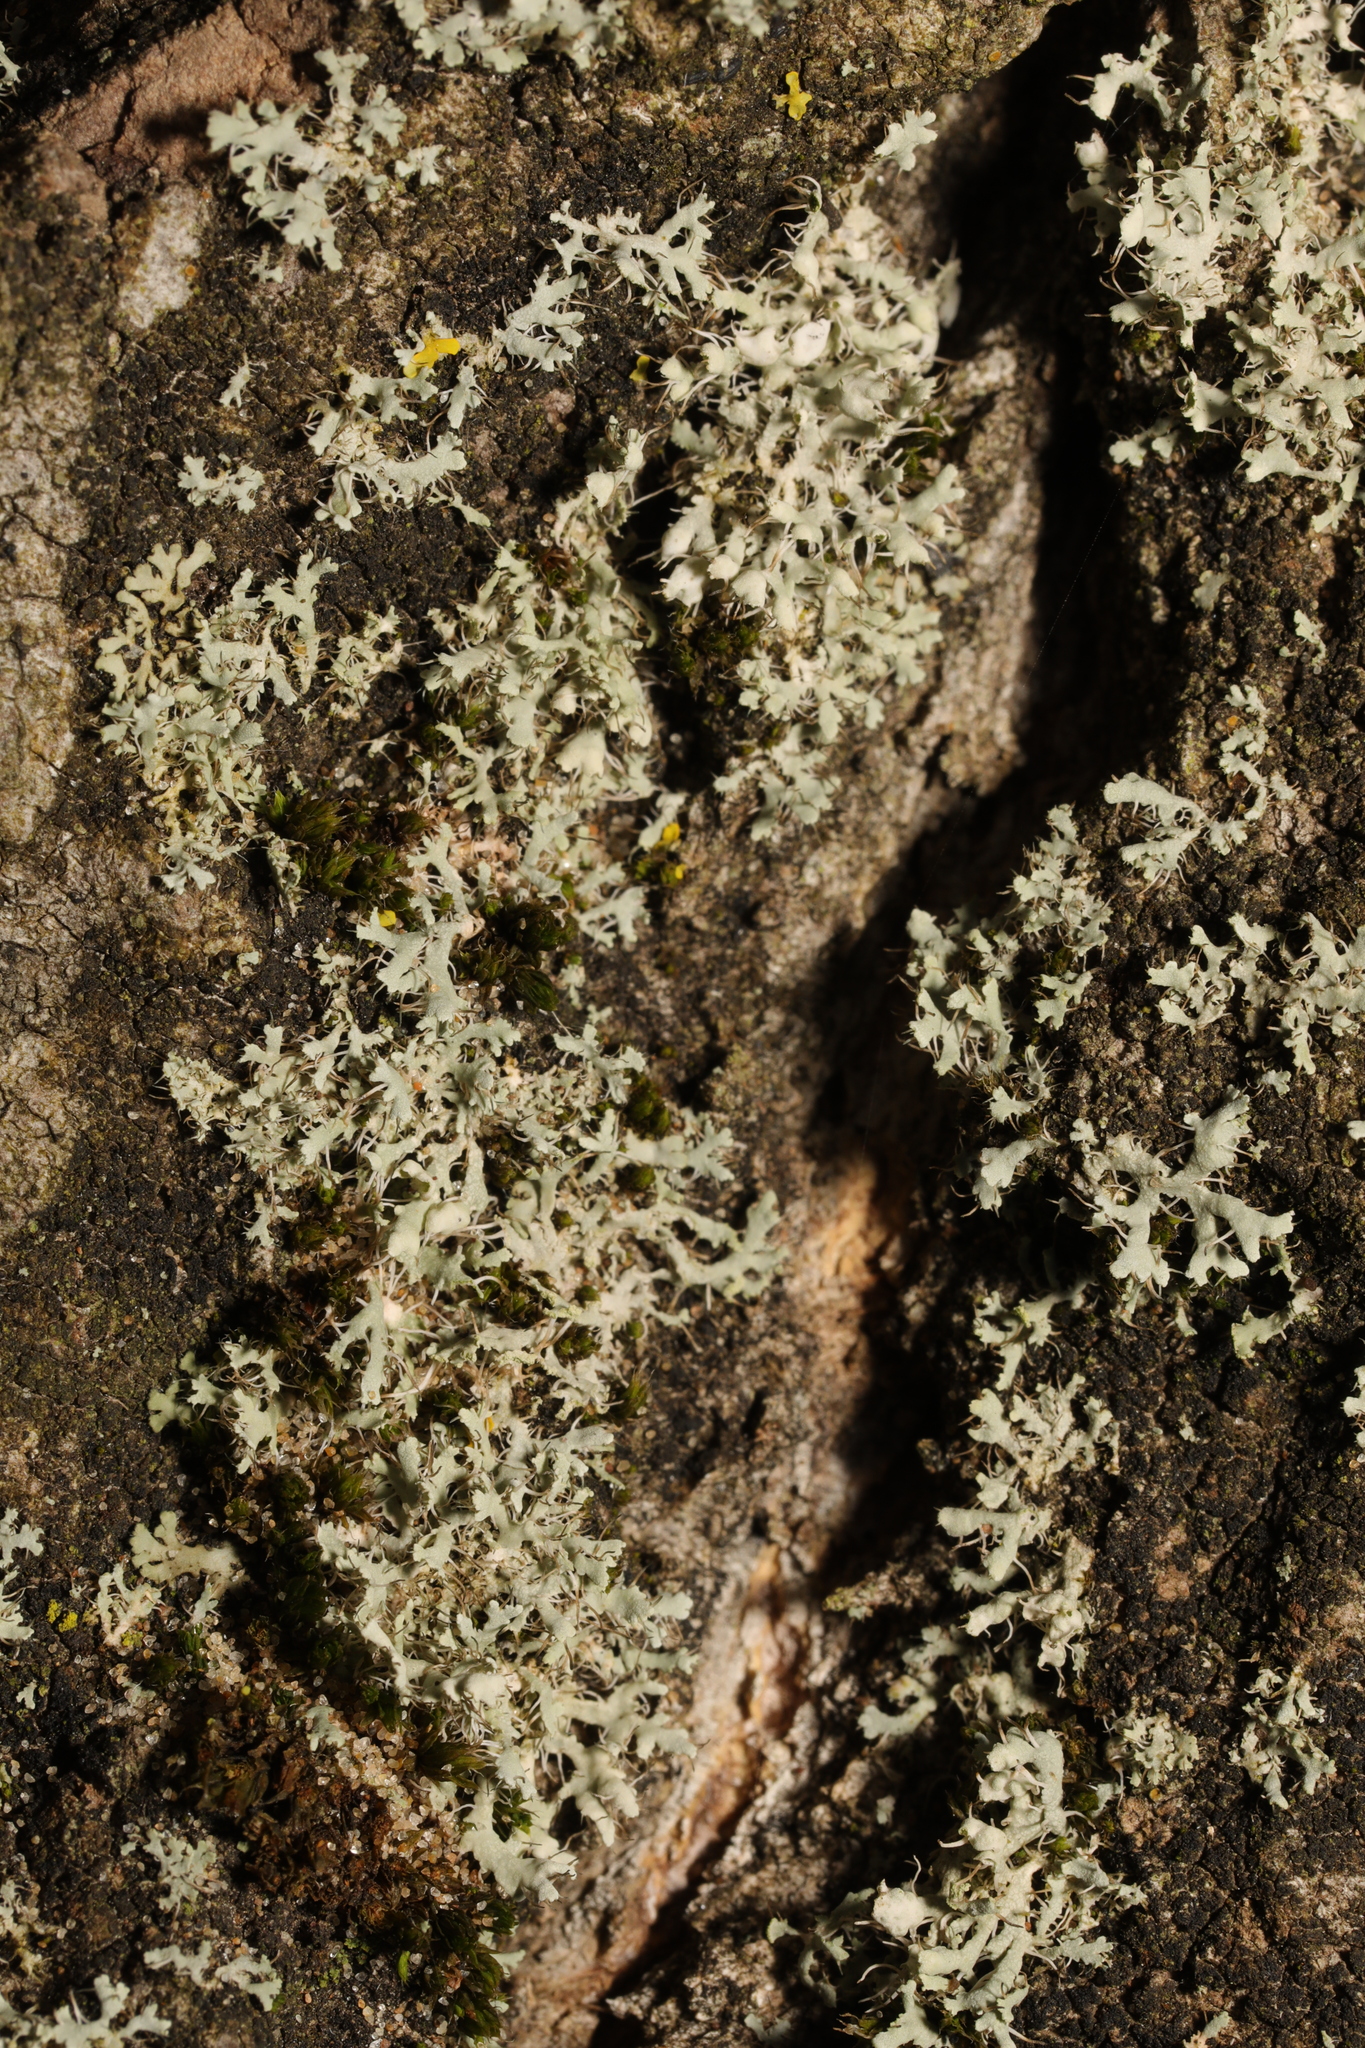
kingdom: Fungi
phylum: Ascomycota
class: Lecanoromycetes
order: Caliciales
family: Physciaceae
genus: Physcia
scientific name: Physcia adscendens
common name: Hooded rosette lichen
